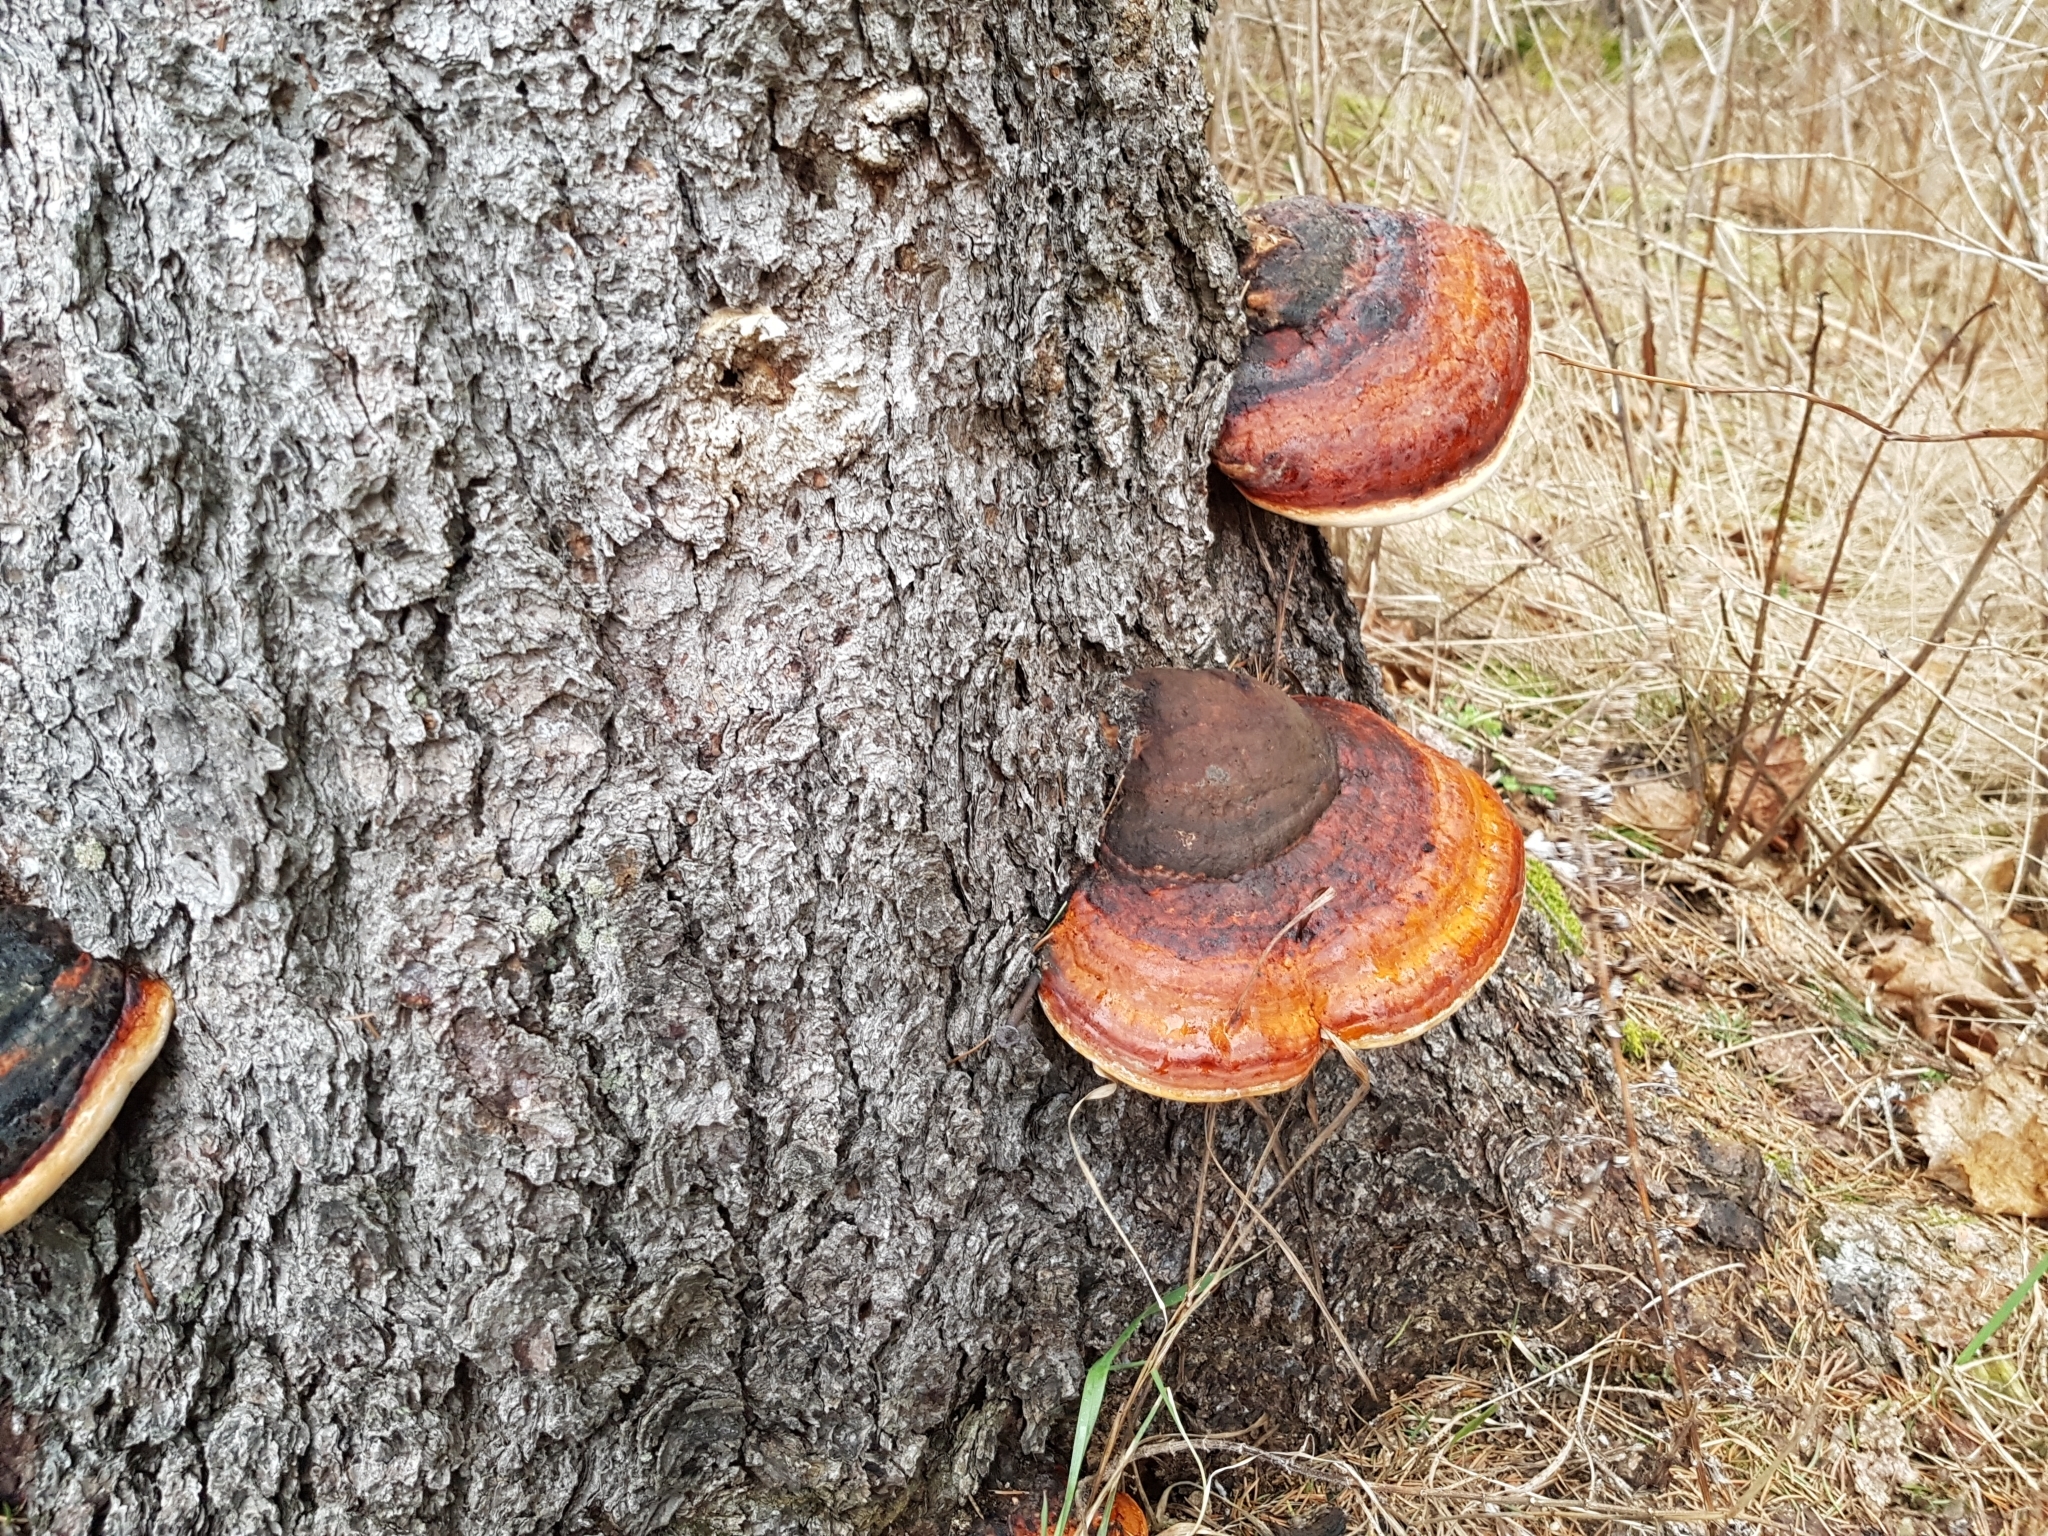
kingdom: Fungi
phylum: Basidiomycota
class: Agaricomycetes
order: Polyporales
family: Fomitopsidaceae
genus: Fomitopsis
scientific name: Fomitopsis pinicola
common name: Red-belted bracket
